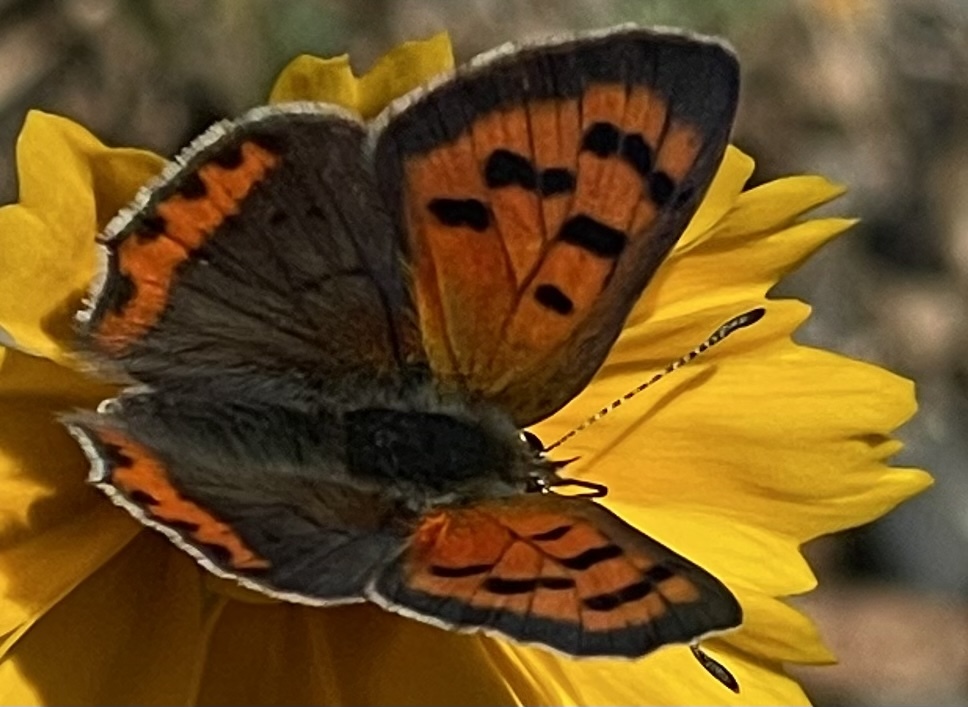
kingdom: Animalia
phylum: Arthropoda
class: Insecta
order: Lepidoptera
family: Lycaenidae
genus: Lycaena
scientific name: Lycaena hypophlaeas
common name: American copper
